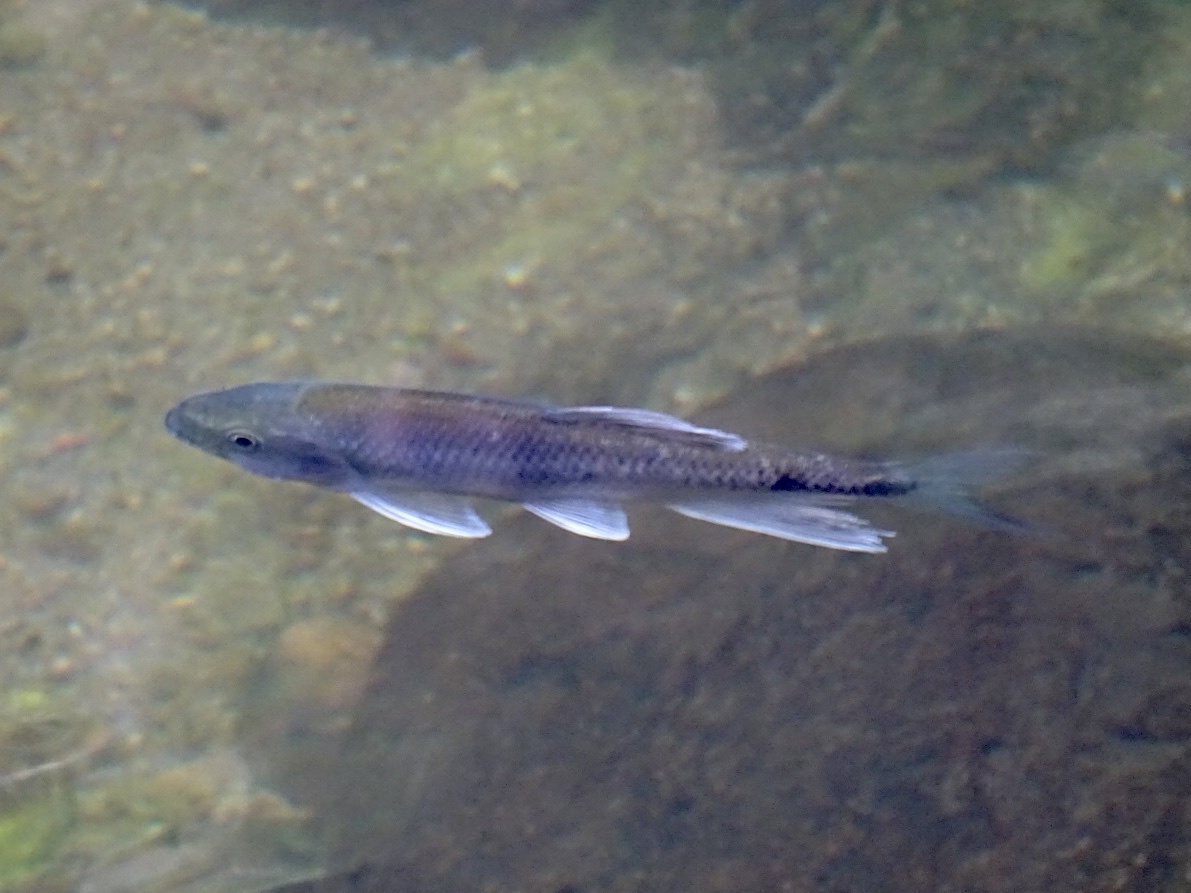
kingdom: Animalia
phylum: Chordata
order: Cypriniformes
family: Cyprinidae
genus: Parazacco
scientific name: Parazacco spilurus
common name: Predaceous chub
